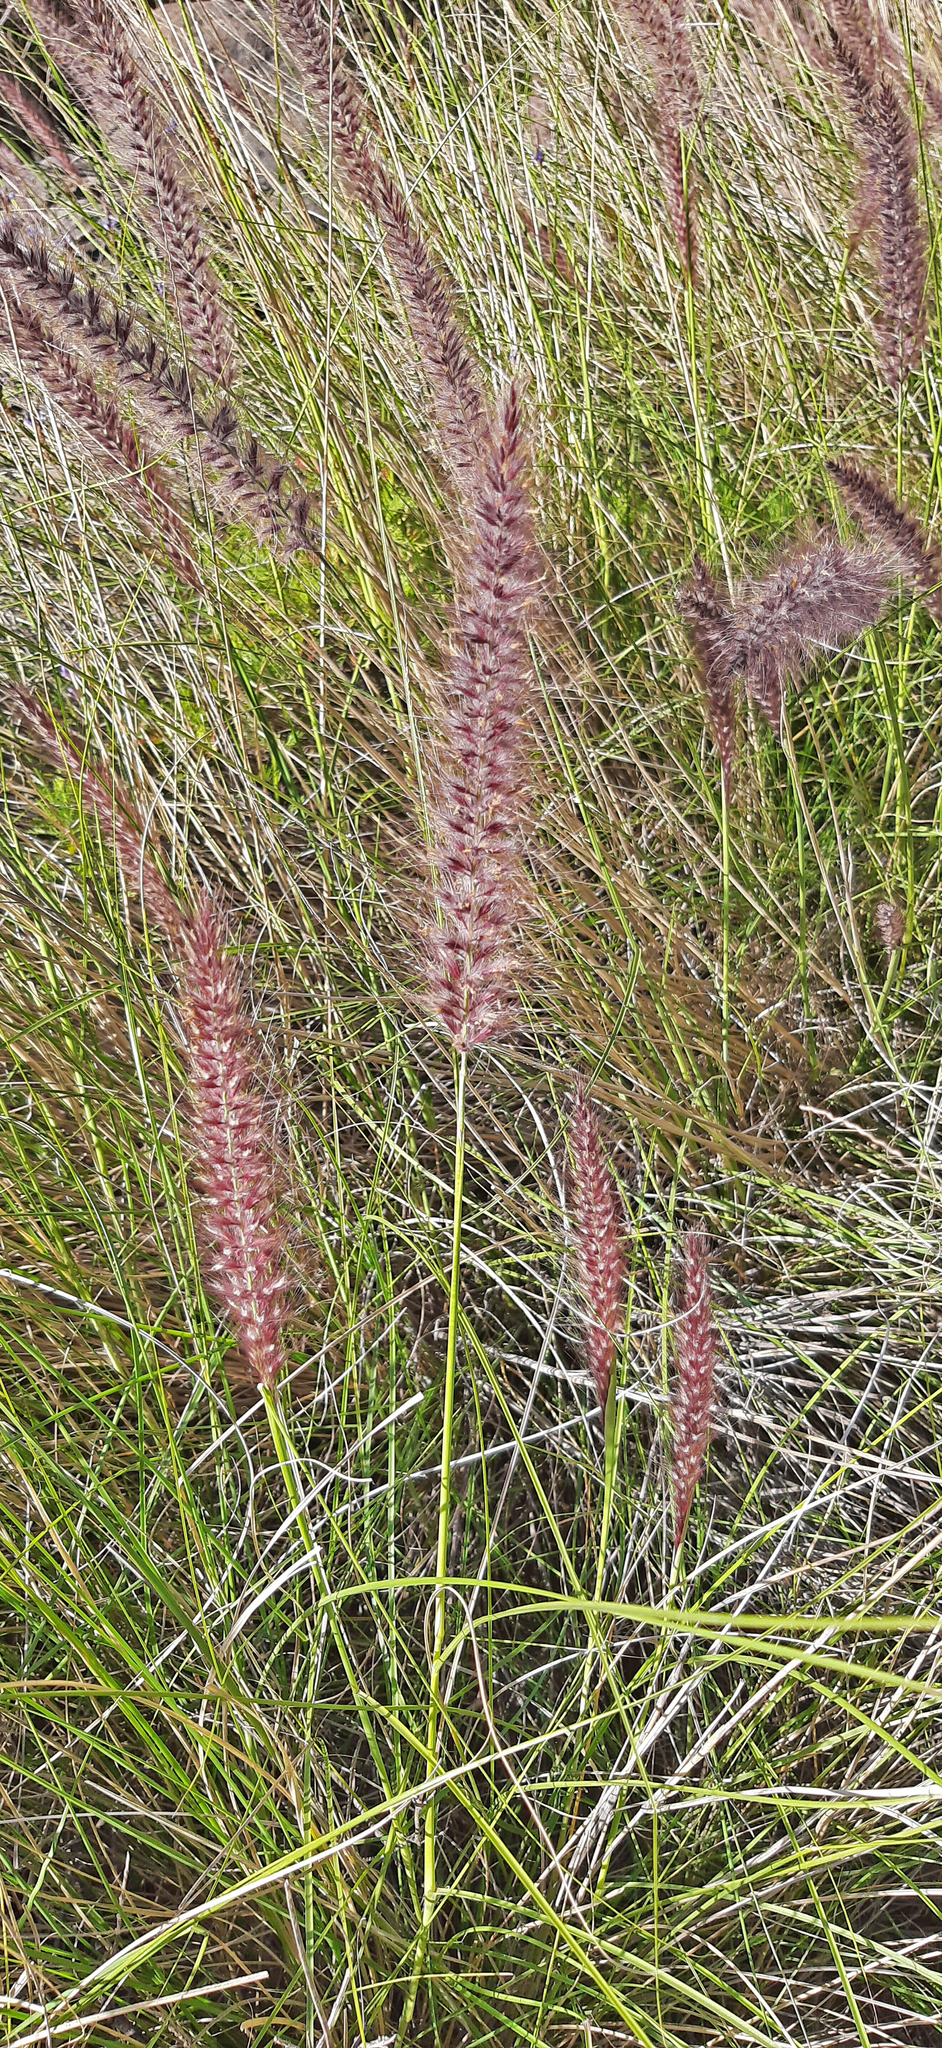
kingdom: Plantae
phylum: Tracheophyta
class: Liliopsida
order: Poales
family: Poaceae
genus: Cenchrus
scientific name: Cenchrus setaceus
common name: Crimson fountaingrass
